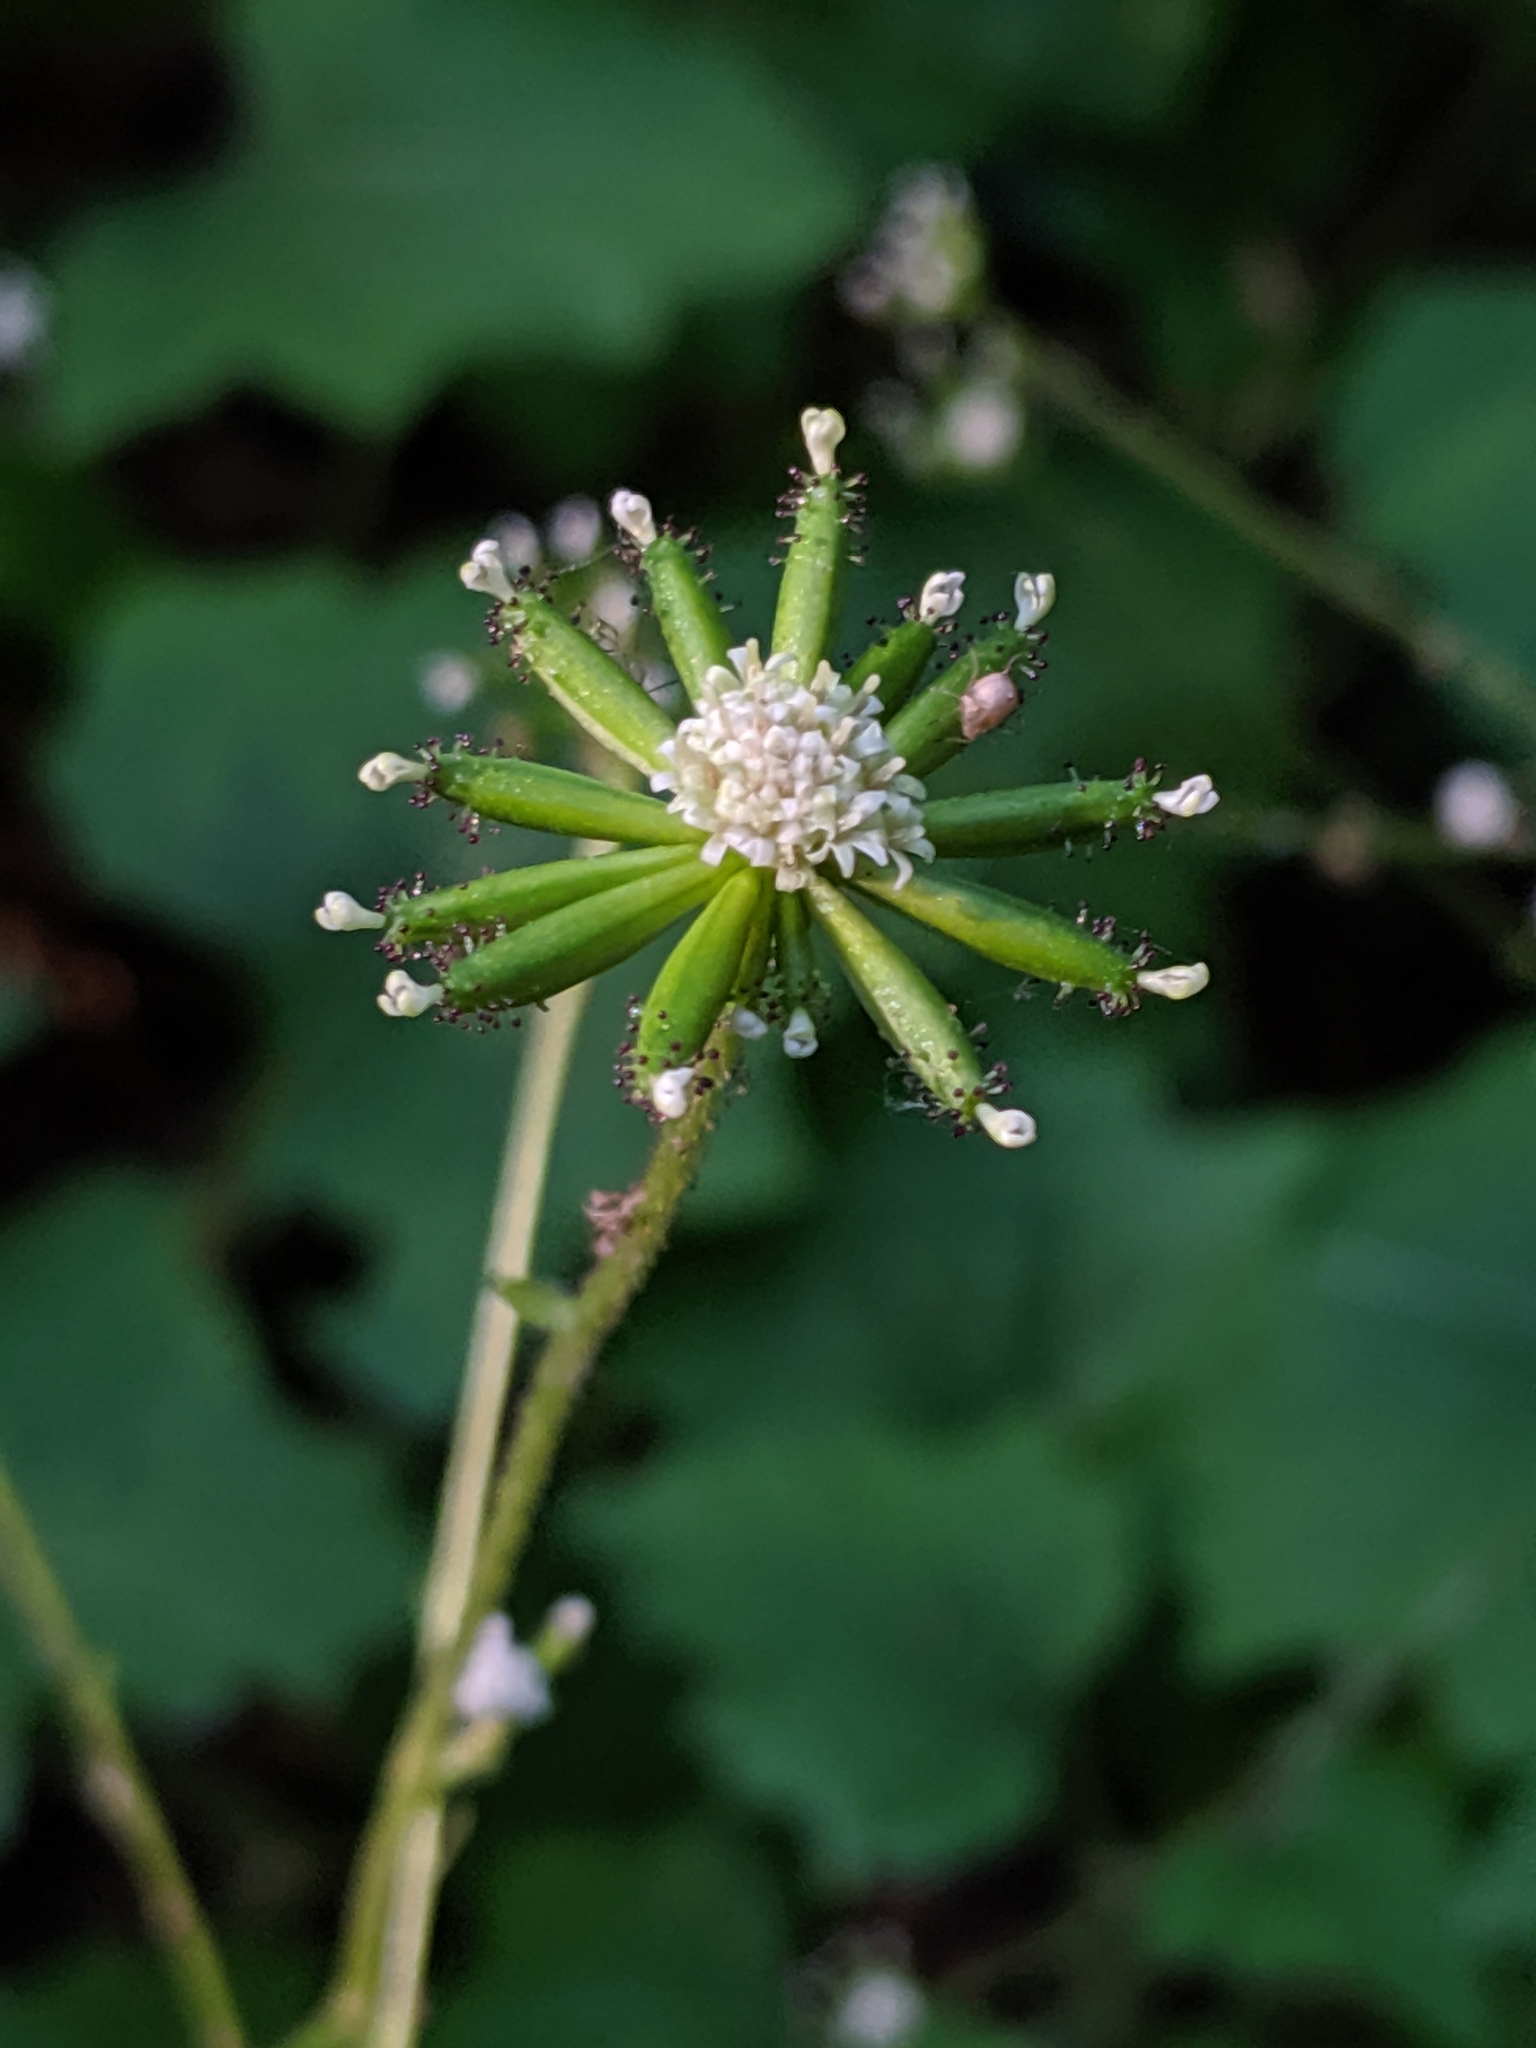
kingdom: Plantae
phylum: Tracheophyta
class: Magnoliopsida
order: Asterales
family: Asteraceae
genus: Adenocaulon
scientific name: Adenocaulon bicolor
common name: Trailplant
